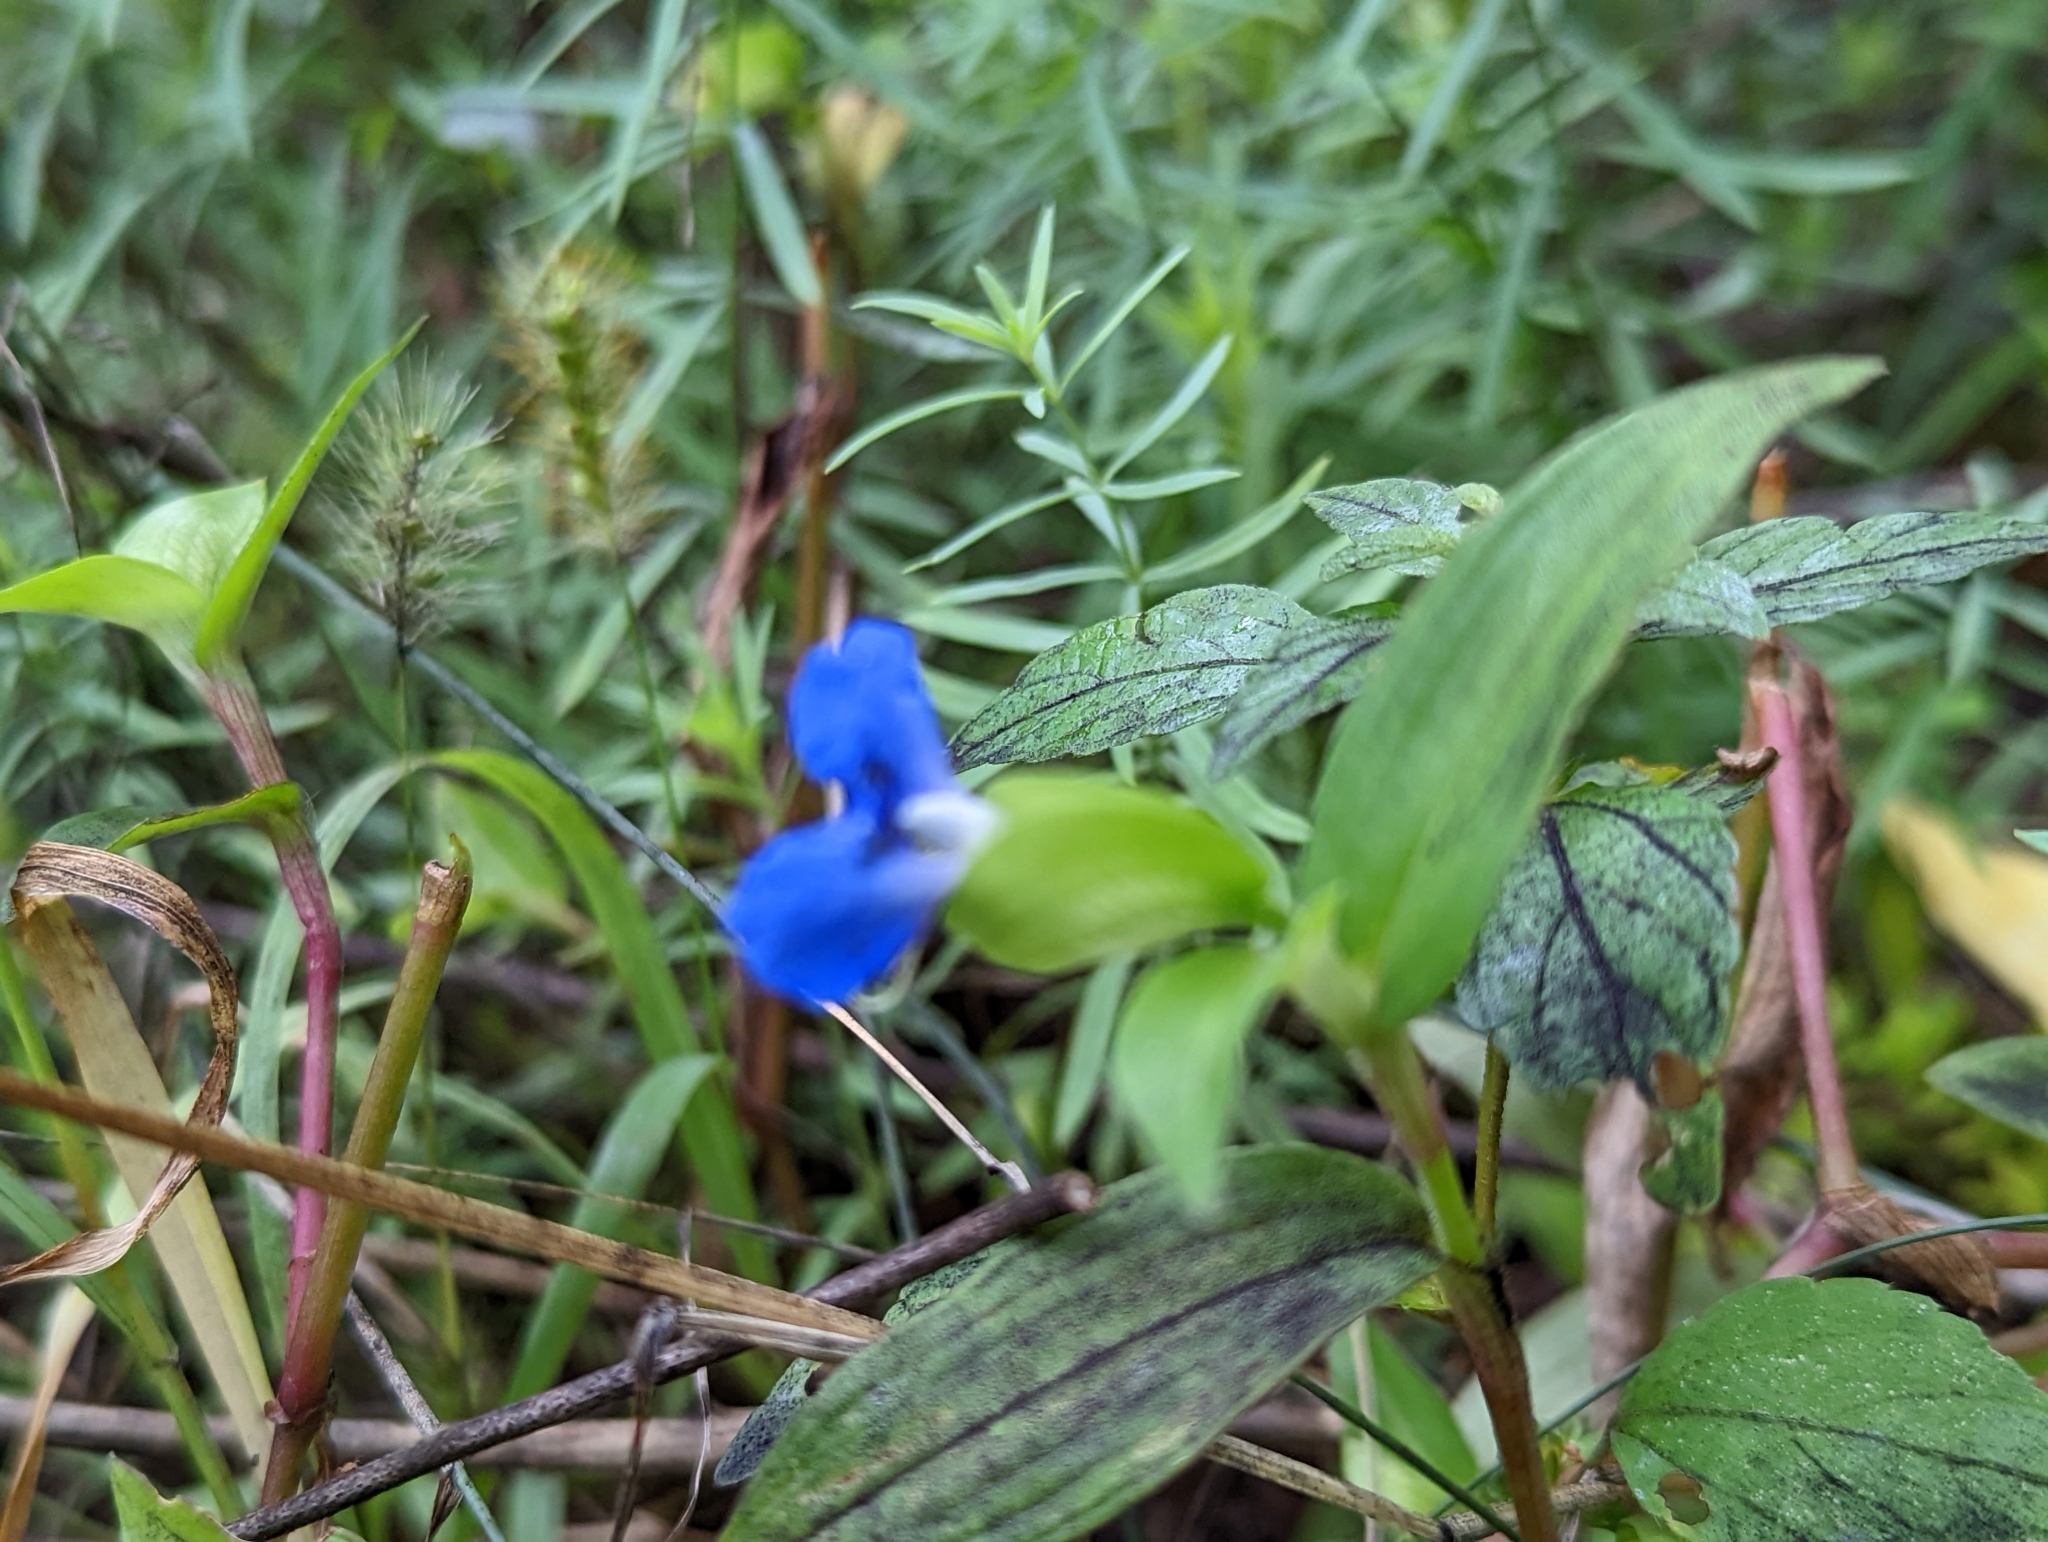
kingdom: Plantae
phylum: Tracheophyta
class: Liliopsida
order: Commelinales
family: Commelinaceae
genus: Commelina
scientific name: Commelina communis
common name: Asiatic dayflower
